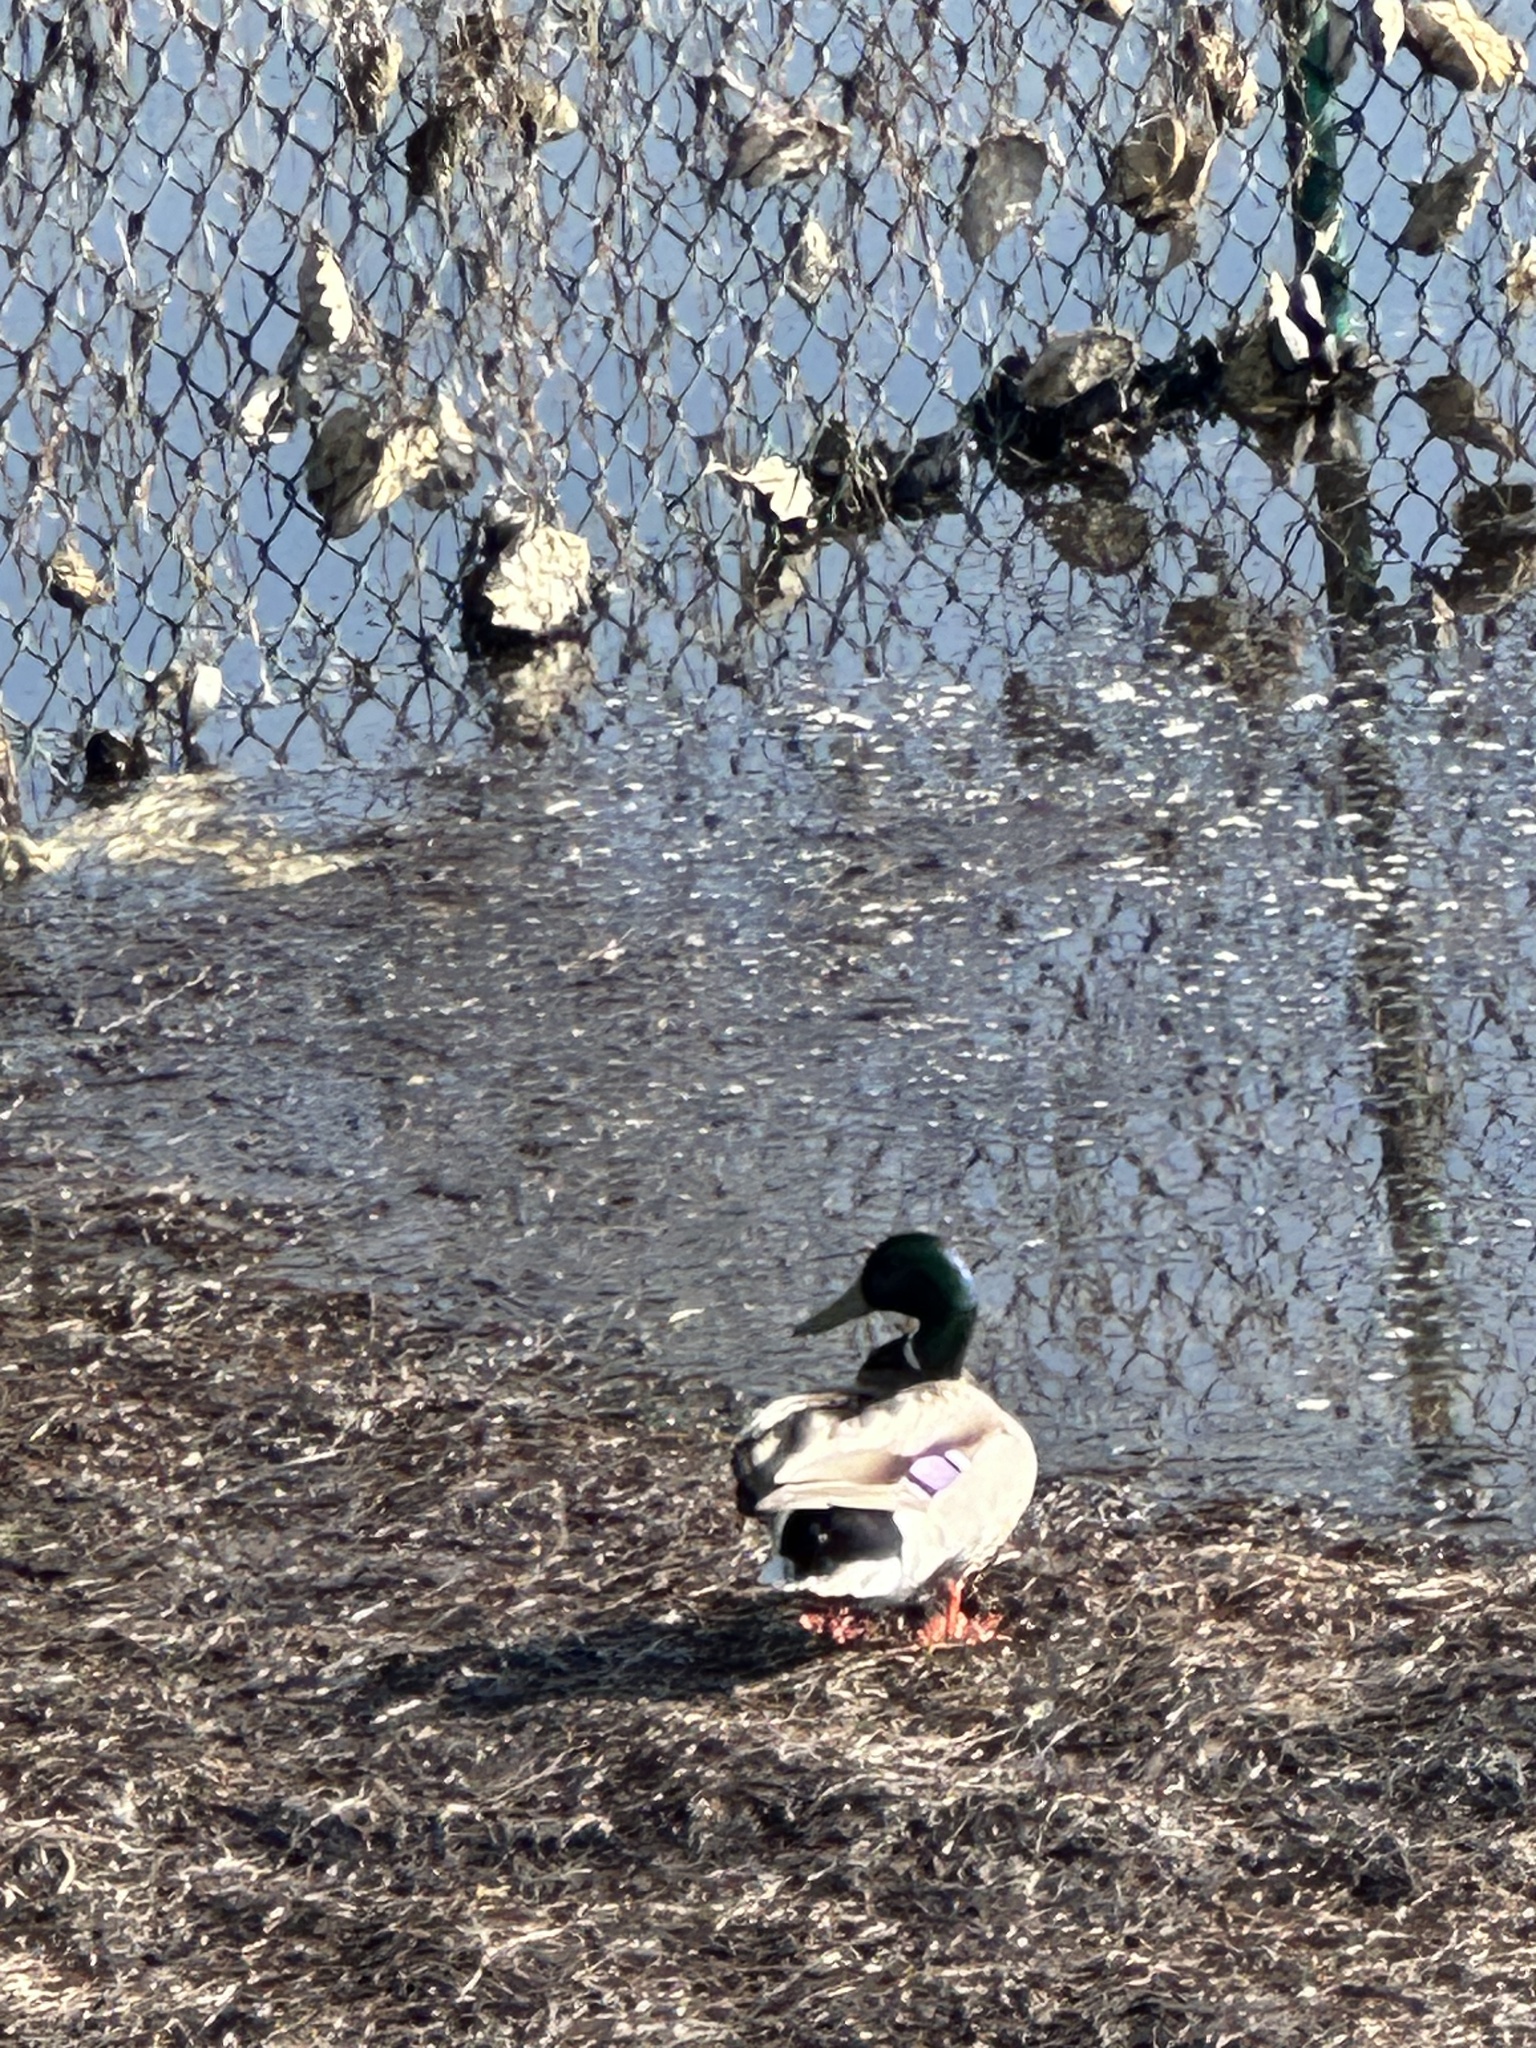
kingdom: Animalia
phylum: Chordata
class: Aves
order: Anseriformes
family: Anatidae
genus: Anas
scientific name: Anas platyrhynchos
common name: Mallard
